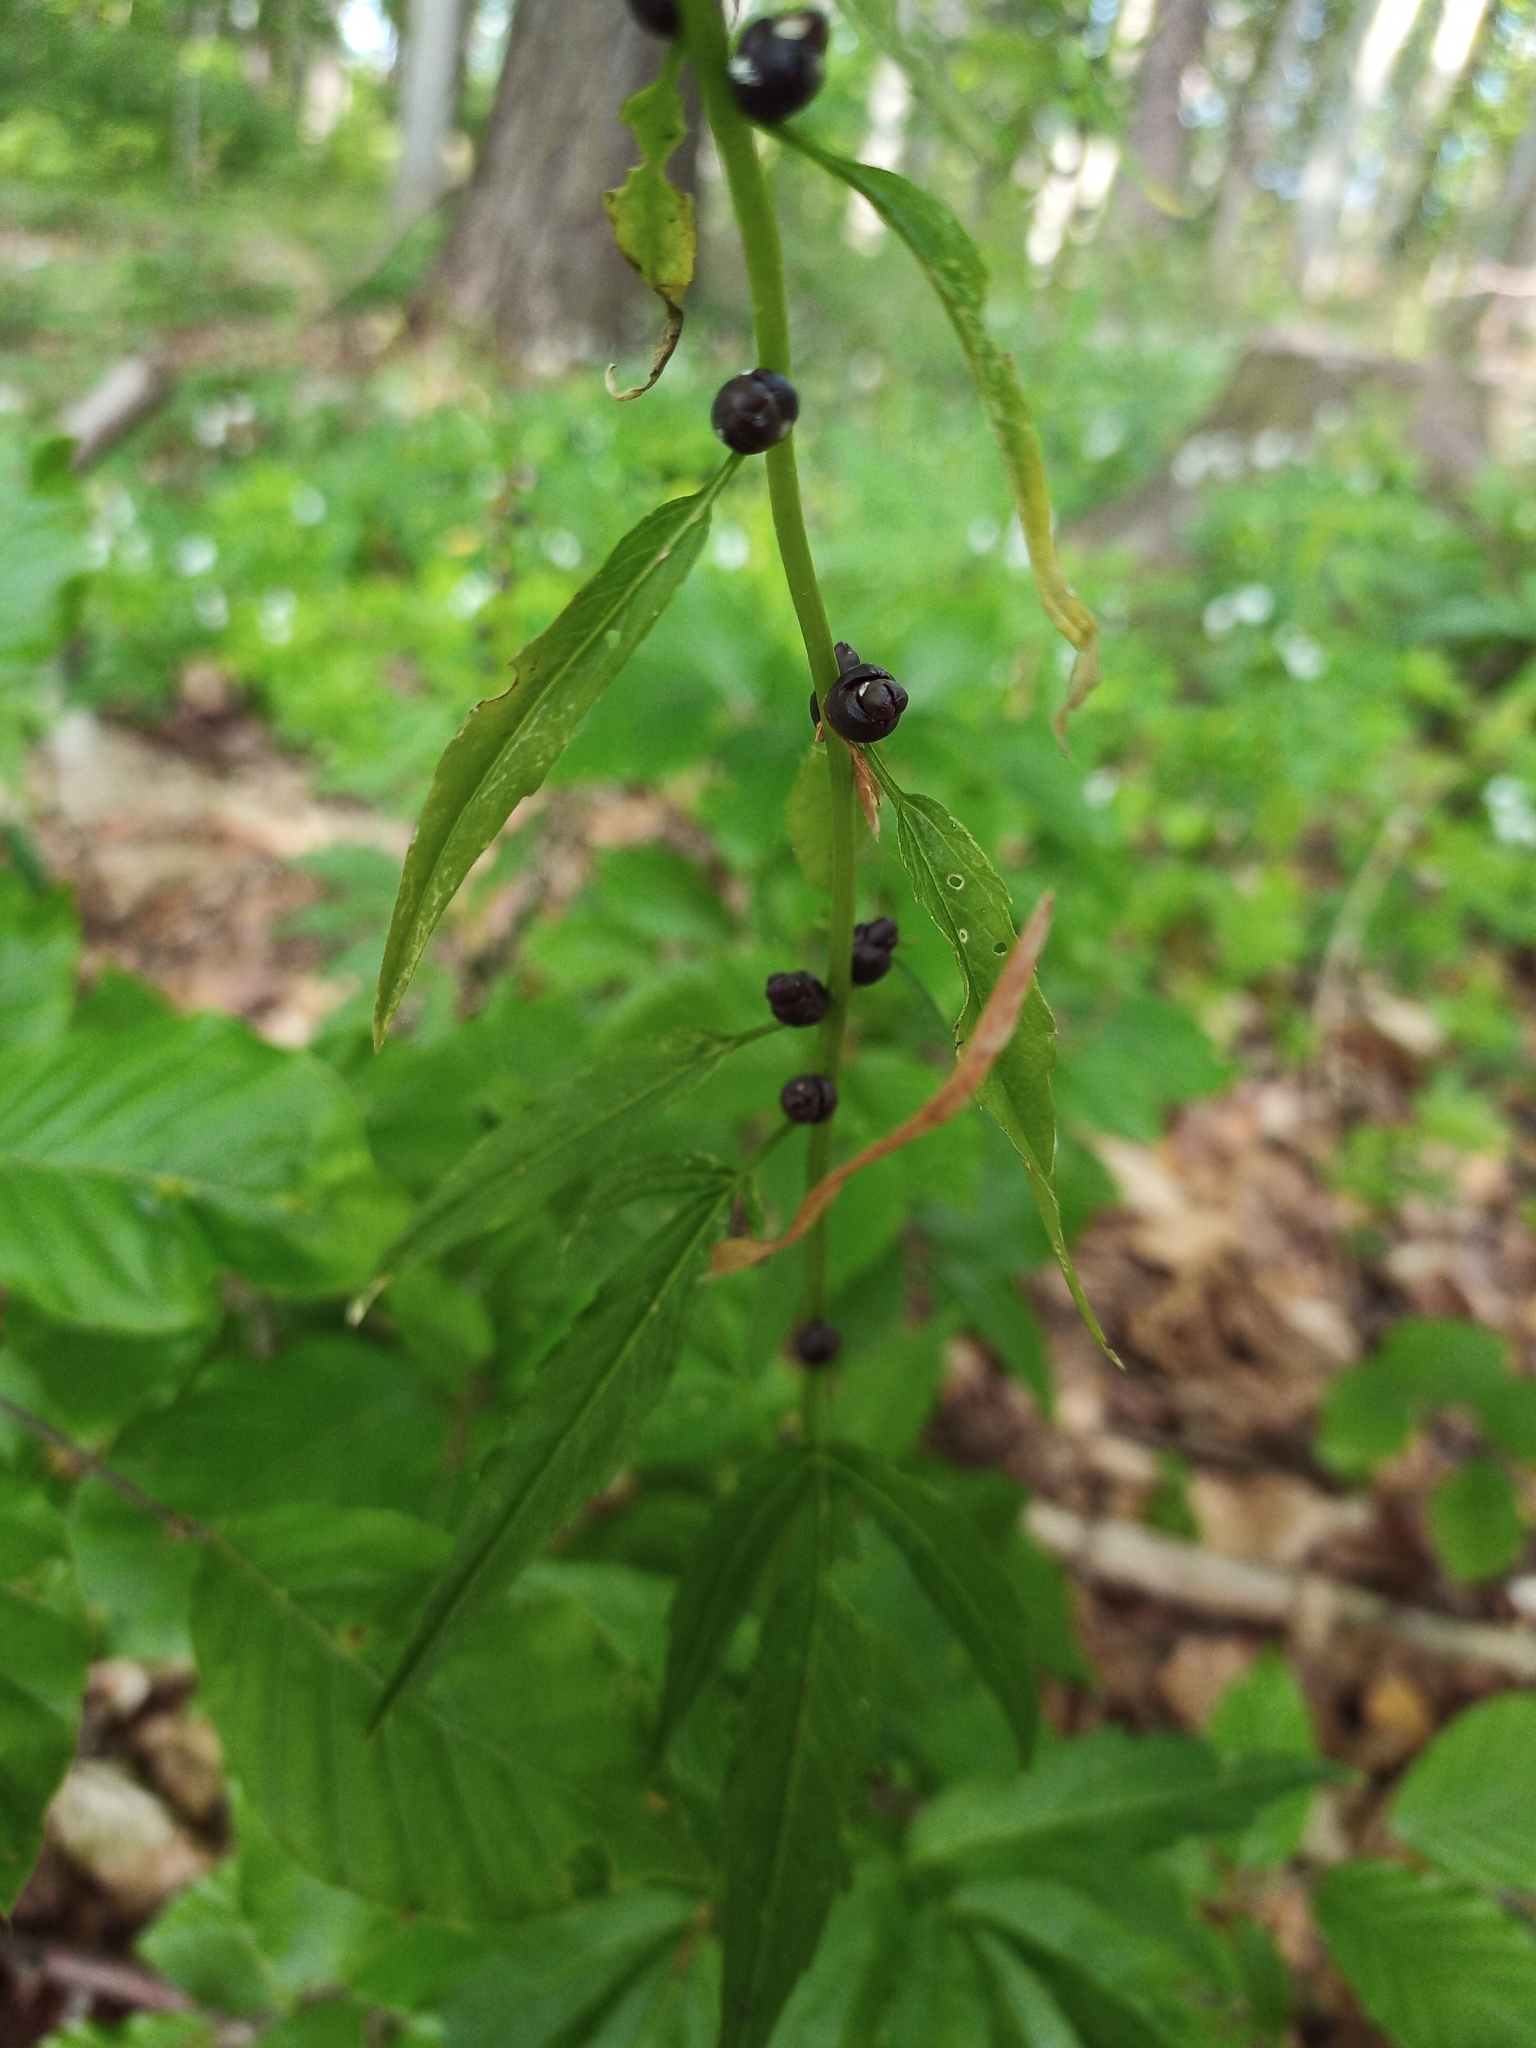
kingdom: Plantae
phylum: Tracheophyta
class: Magnoliopsida
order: Brassicales
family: Brassicaceae
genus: Cardamine
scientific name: Cardamine bulbifera
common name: Coralroot bittercress
